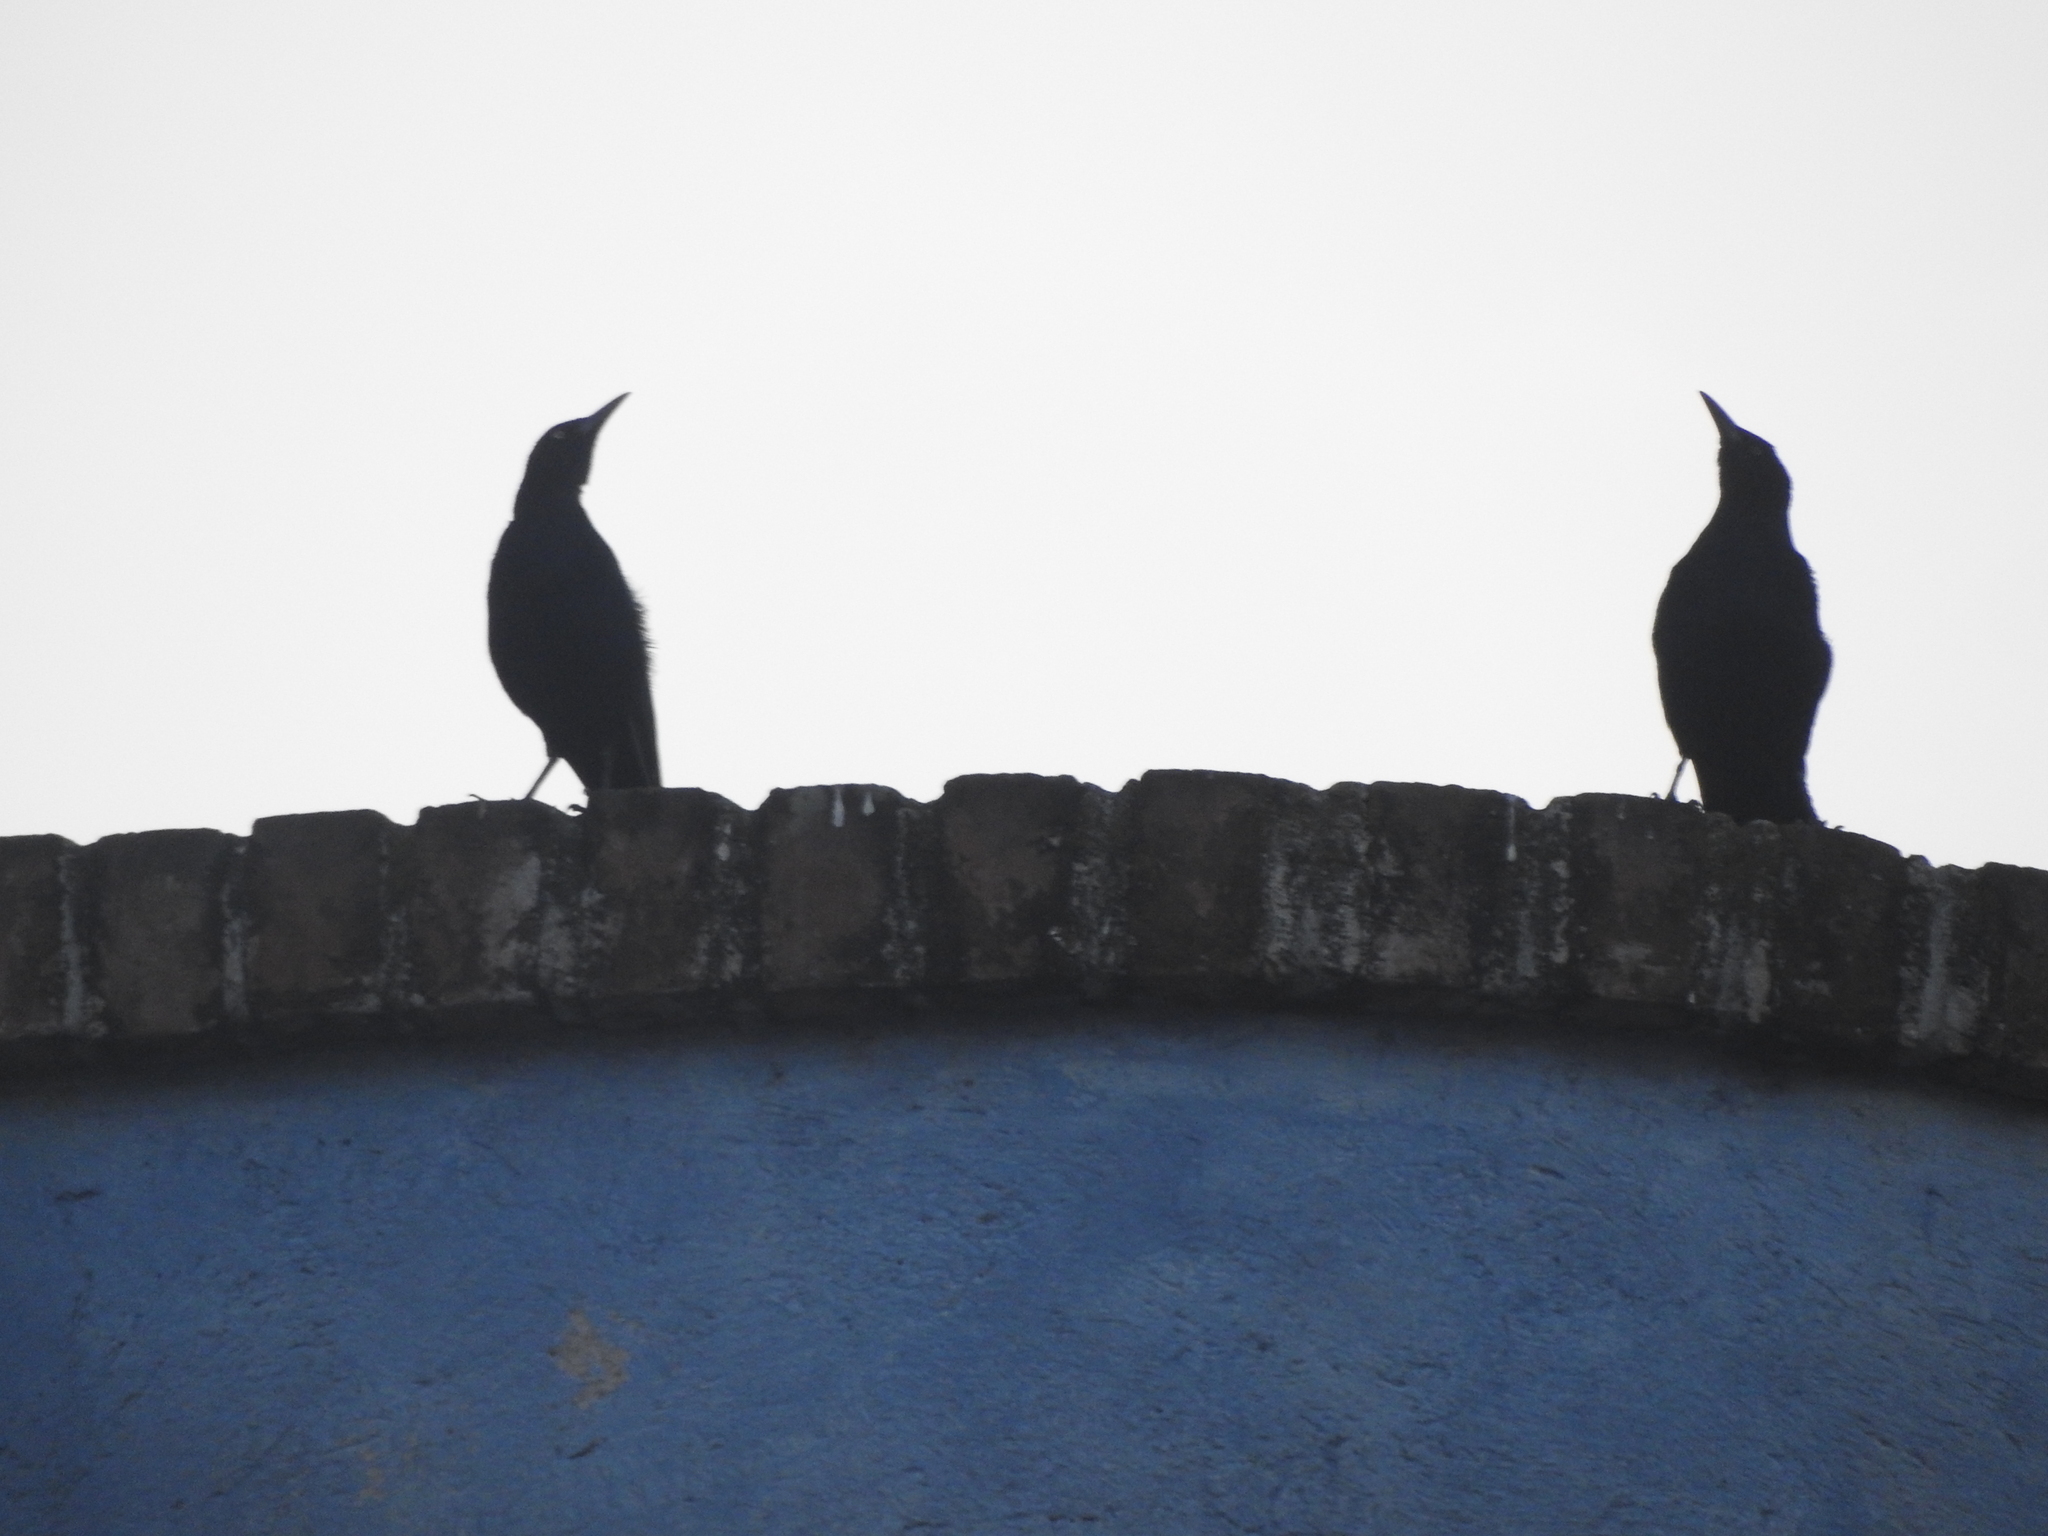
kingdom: Animalia
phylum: Chordata
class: Aves
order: Passeriformes
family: Icteridae
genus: Quiscalus
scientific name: Quiscalus mexicanus
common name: Great-tailed grackle
